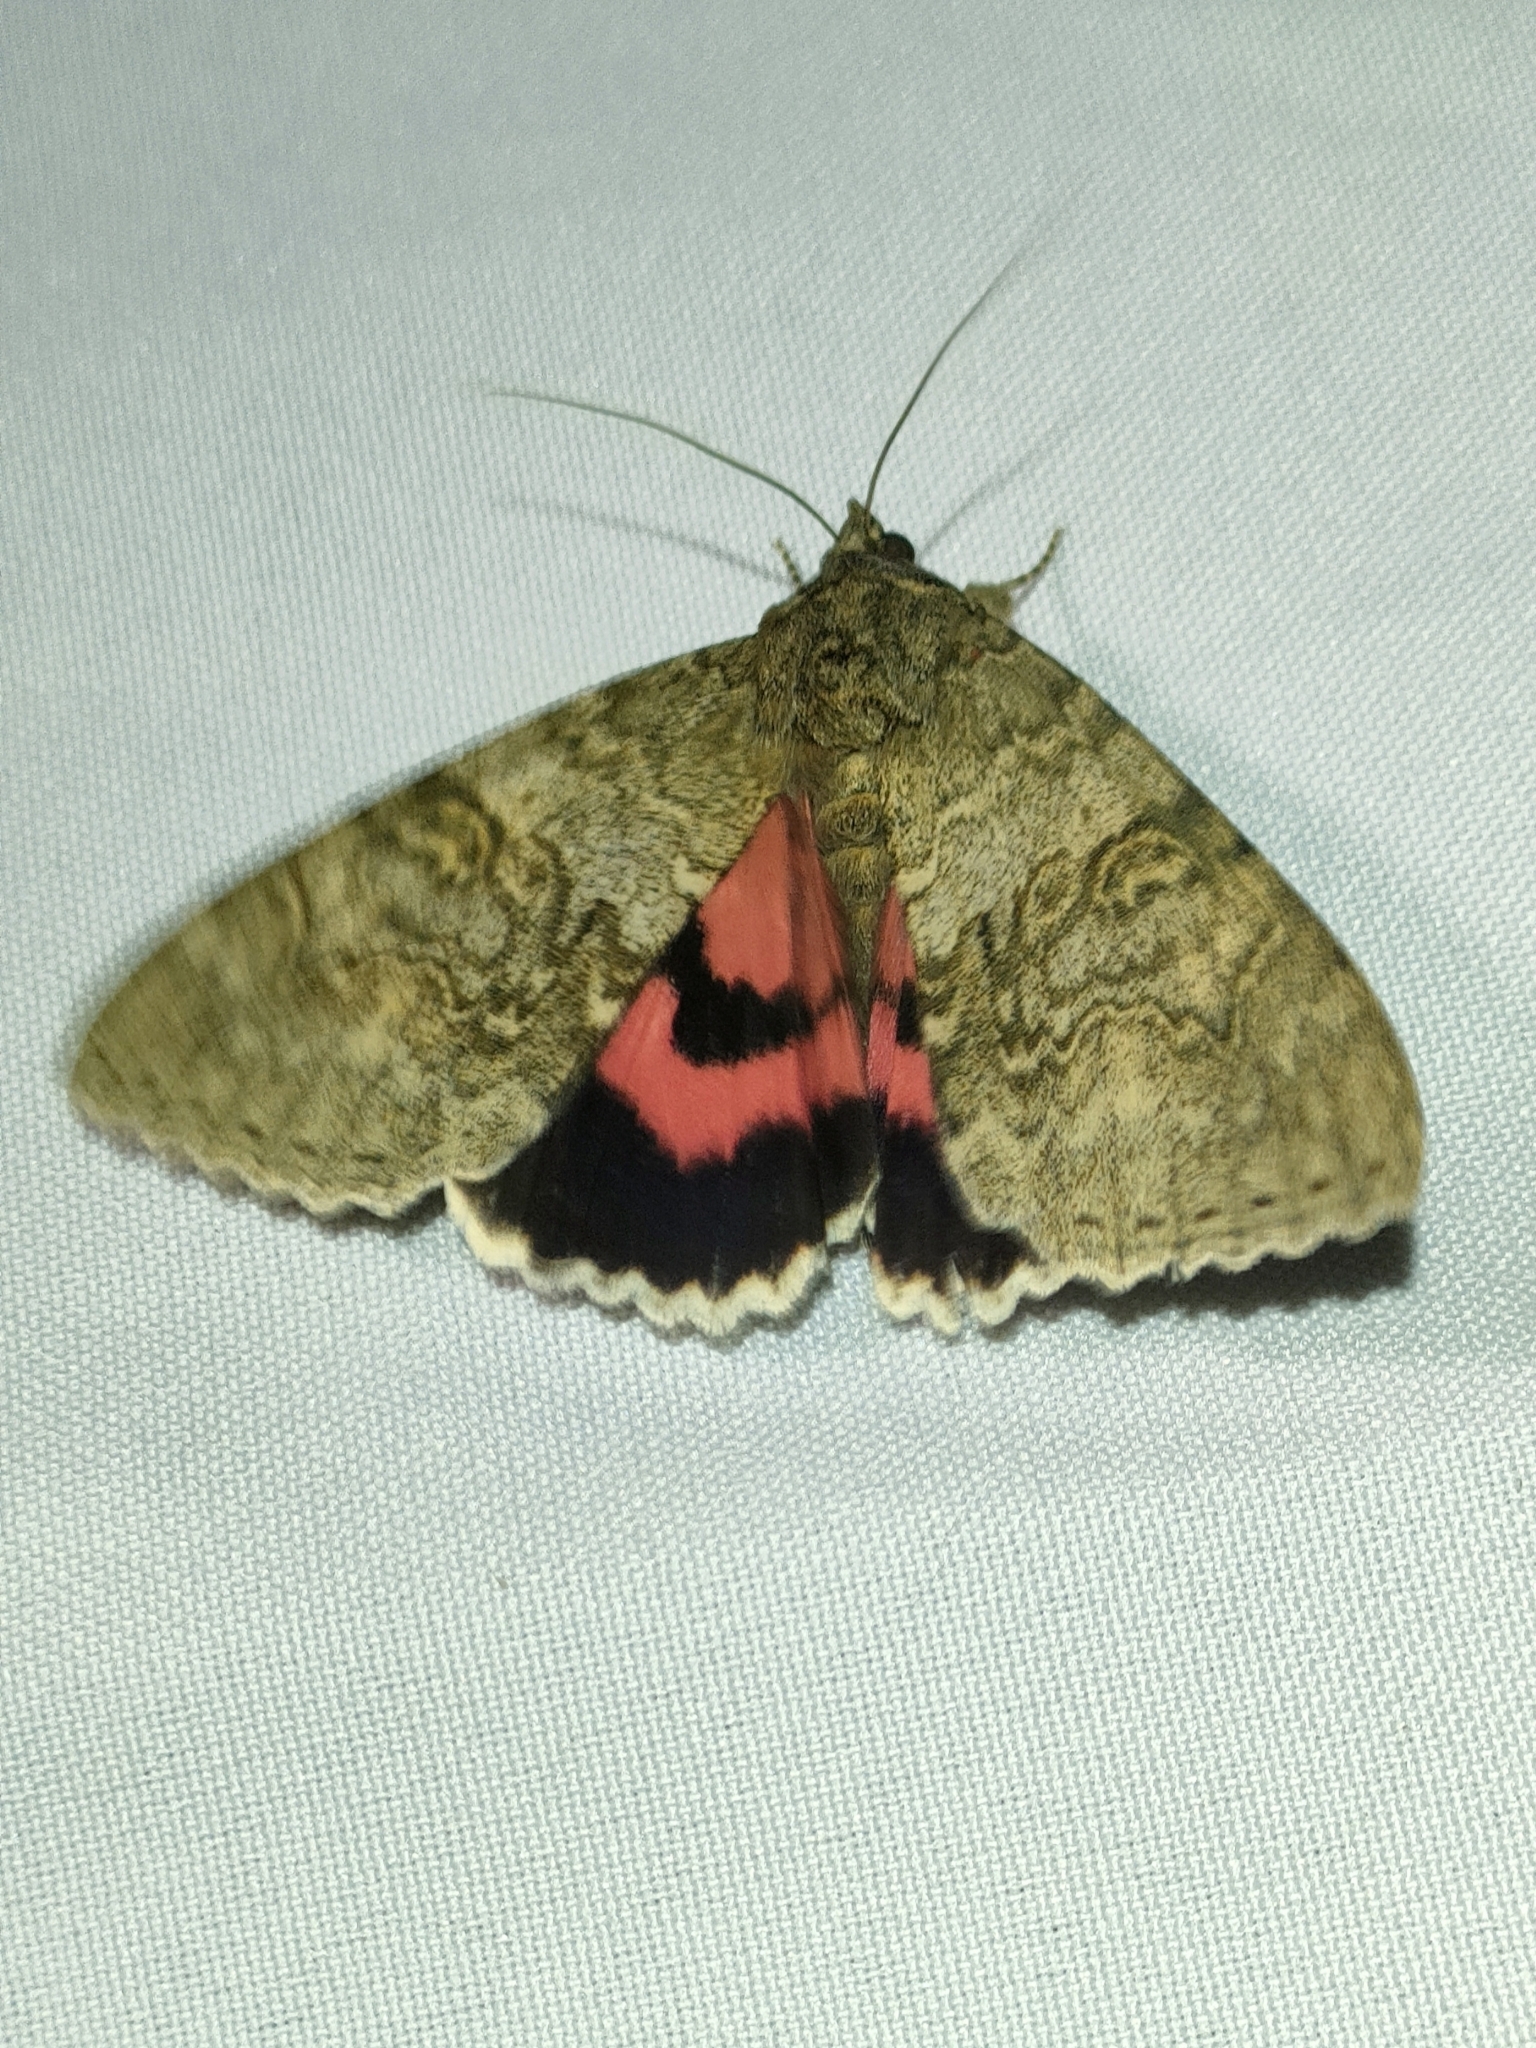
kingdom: Animalia
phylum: Arthropoda
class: Insecta
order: Lepidoptera
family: Erebidae
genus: Catocala
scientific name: Catocala nupta
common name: Red underwing
